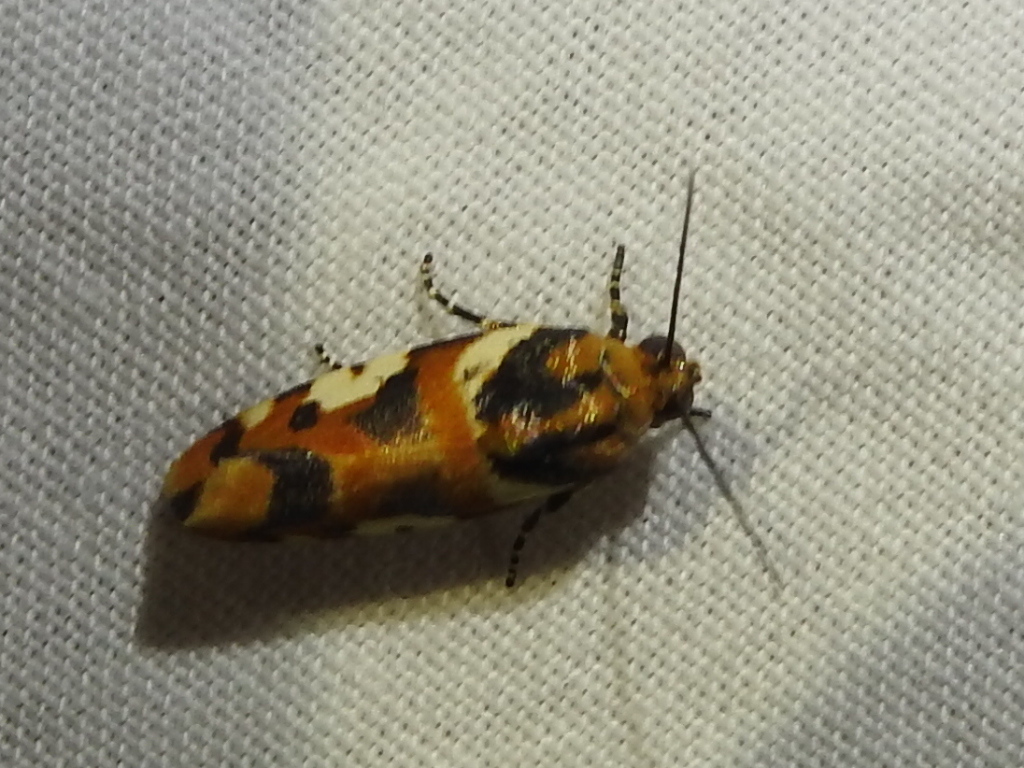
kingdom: Animalia
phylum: Arthropoda
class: Insecta
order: Lepidoptera
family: Noctuidae
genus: Acontia
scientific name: Acontia dama
